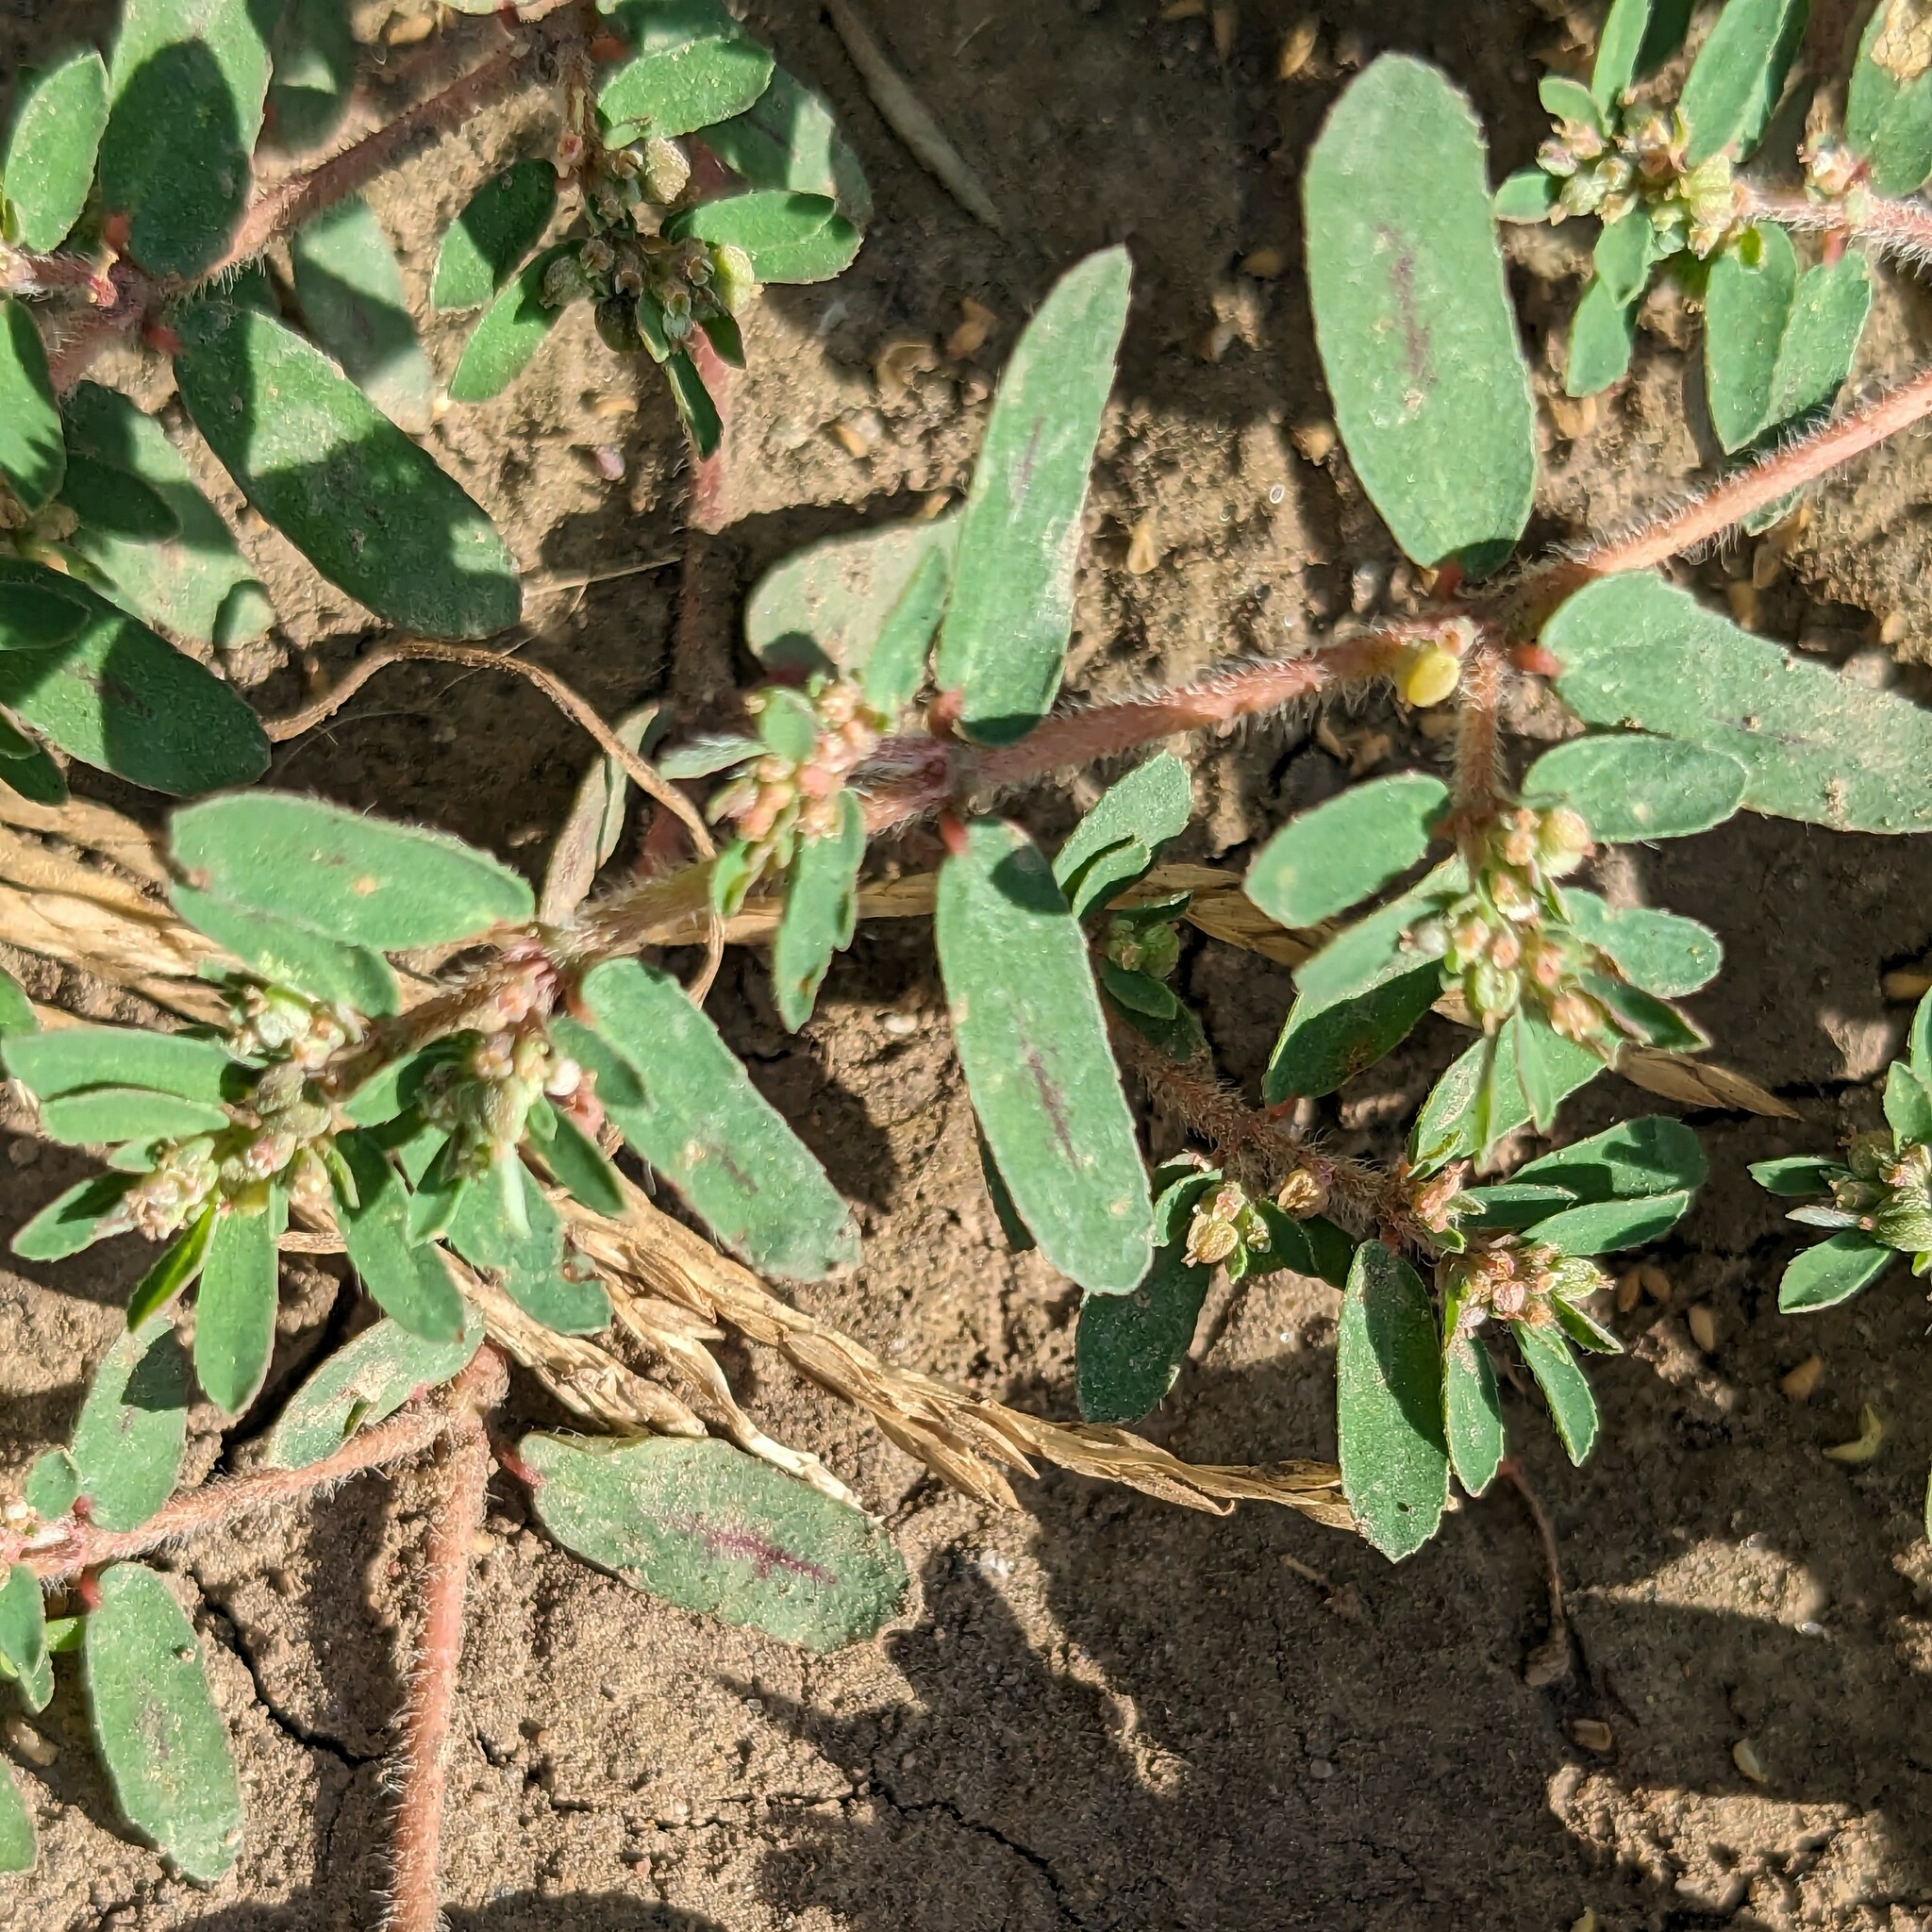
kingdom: Plantae
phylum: Tracheophyta
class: Magnoliopsida
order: Malpighiales
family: Euphorbiaceae
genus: Euphorbia
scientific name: Euphorbia maculata
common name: Spotted spurge
